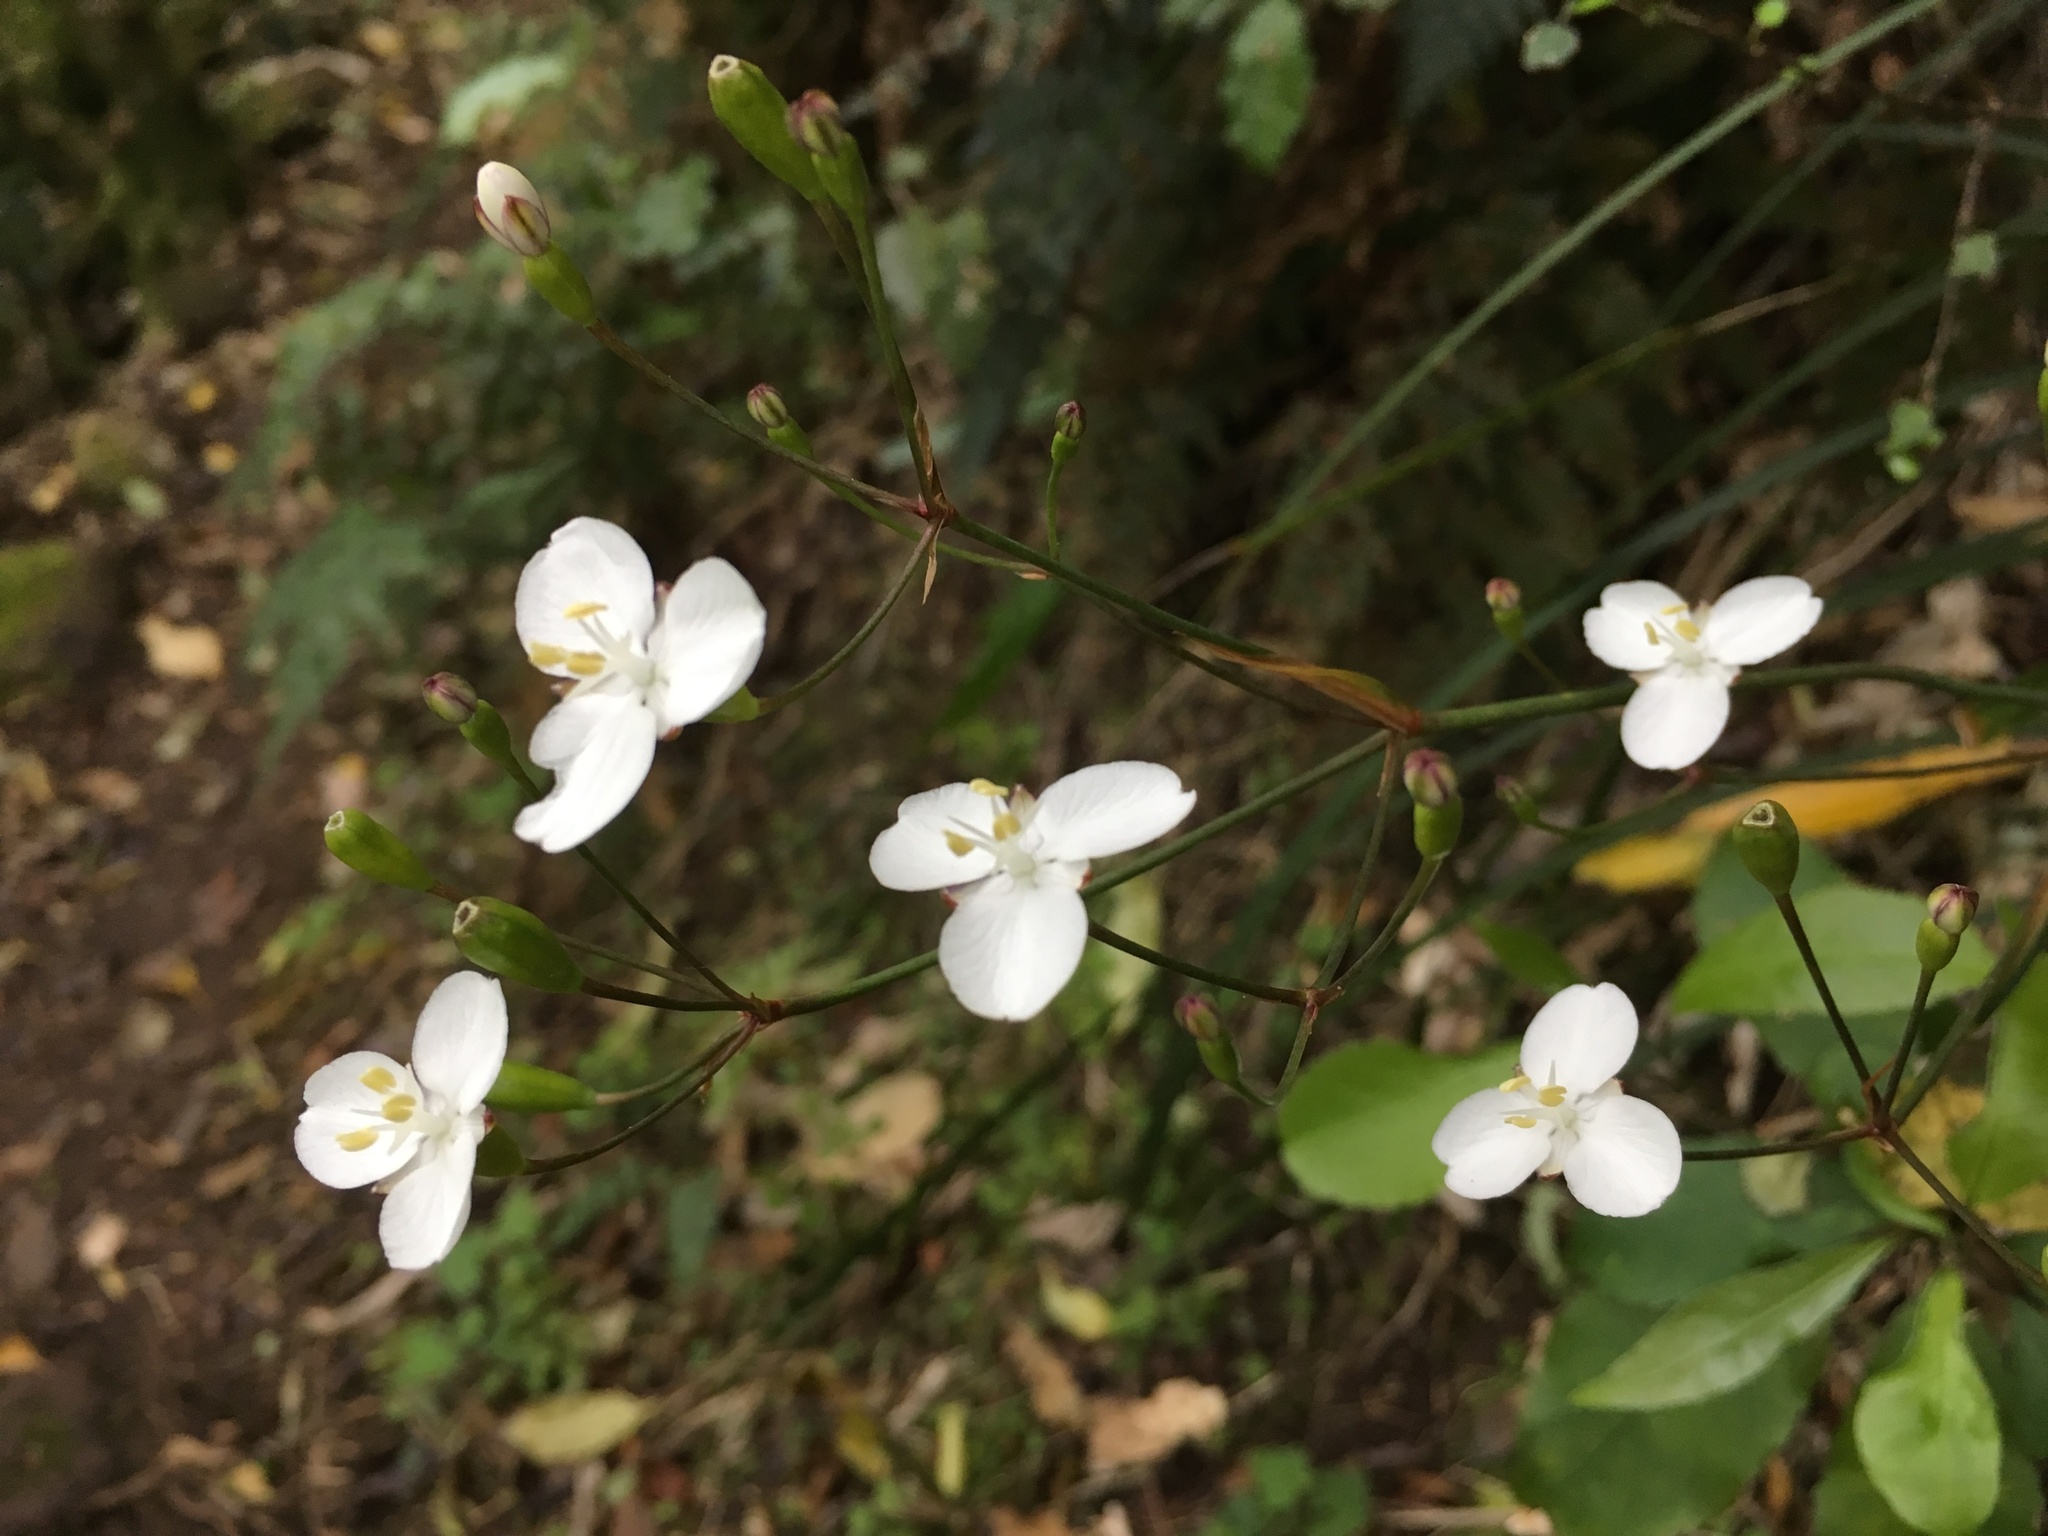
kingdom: Plantae
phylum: Tracheophyta
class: Liliopsida
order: Asparagales
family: Iridaceae
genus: Libertia
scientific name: Libertia ixioides
